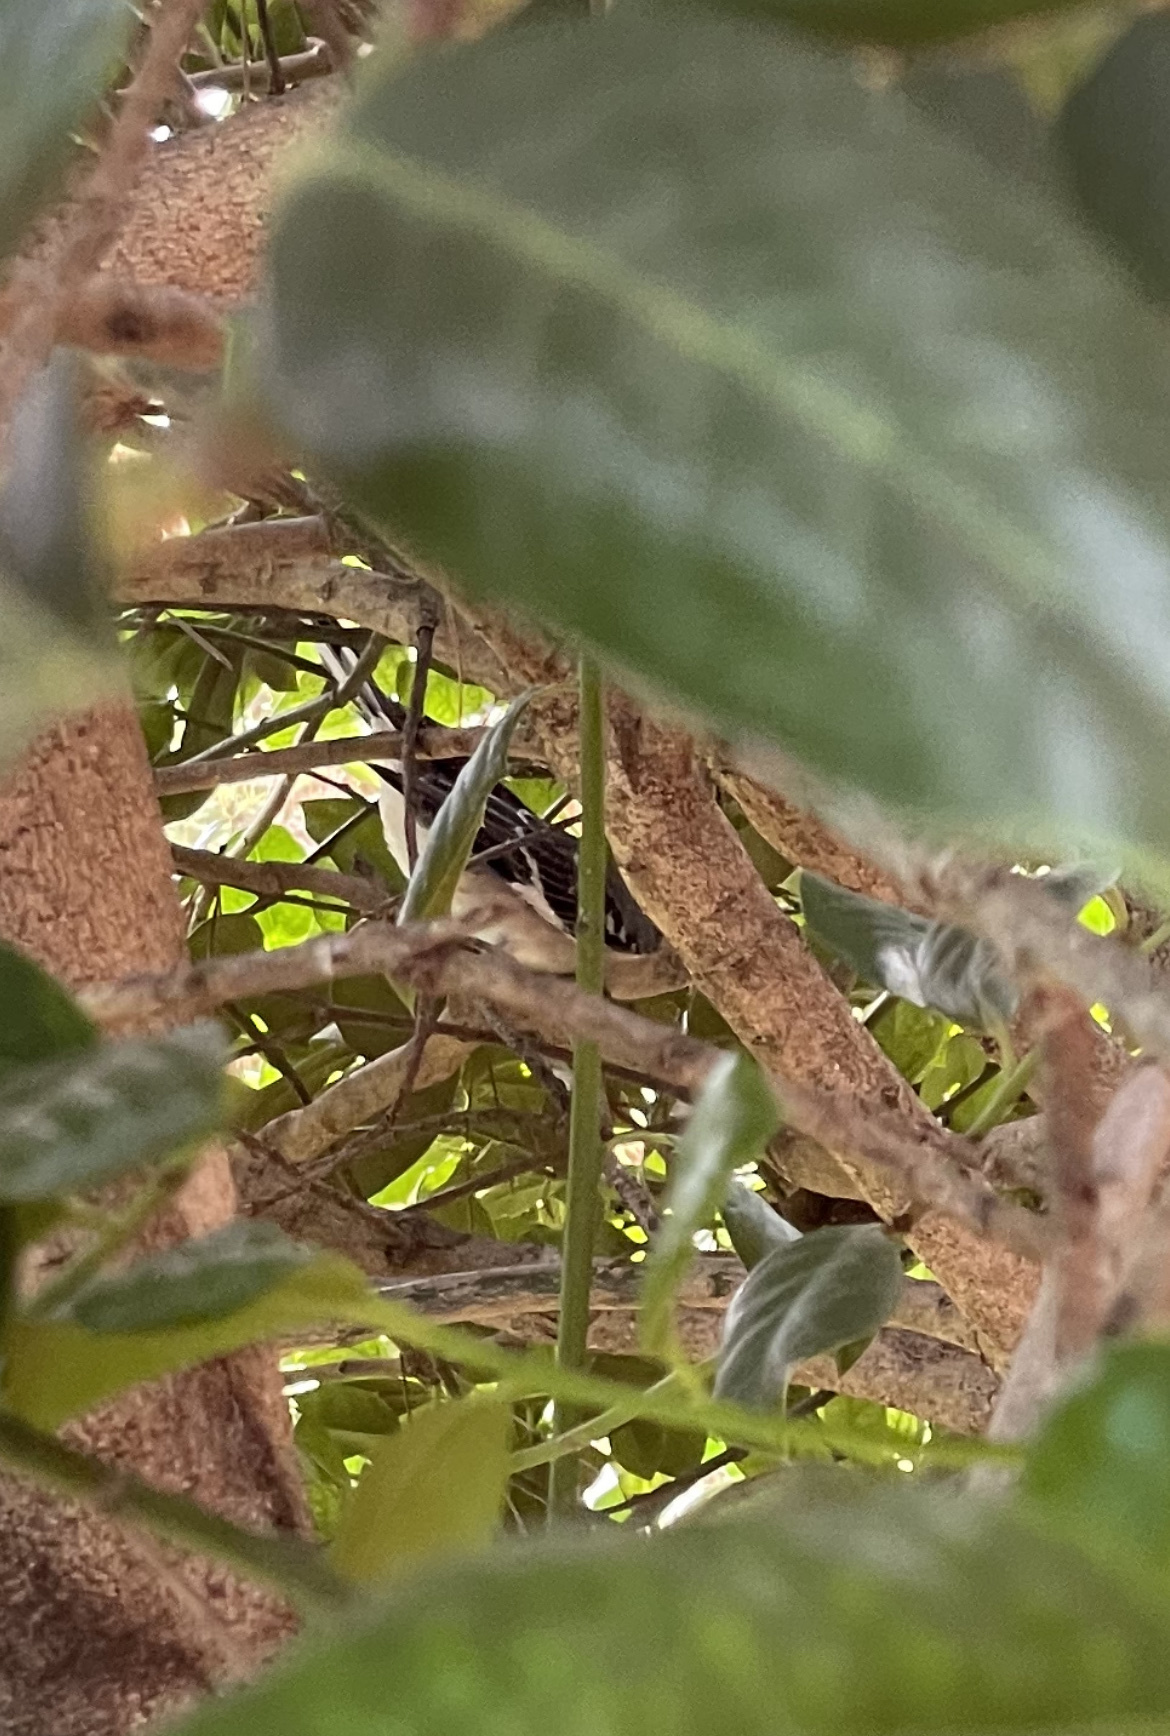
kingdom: Animalia
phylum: Chordata
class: Aves
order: Passeriformes
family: Mimidae
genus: Mimus
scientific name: Mimus polyglottos
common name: Northern mockingbird
